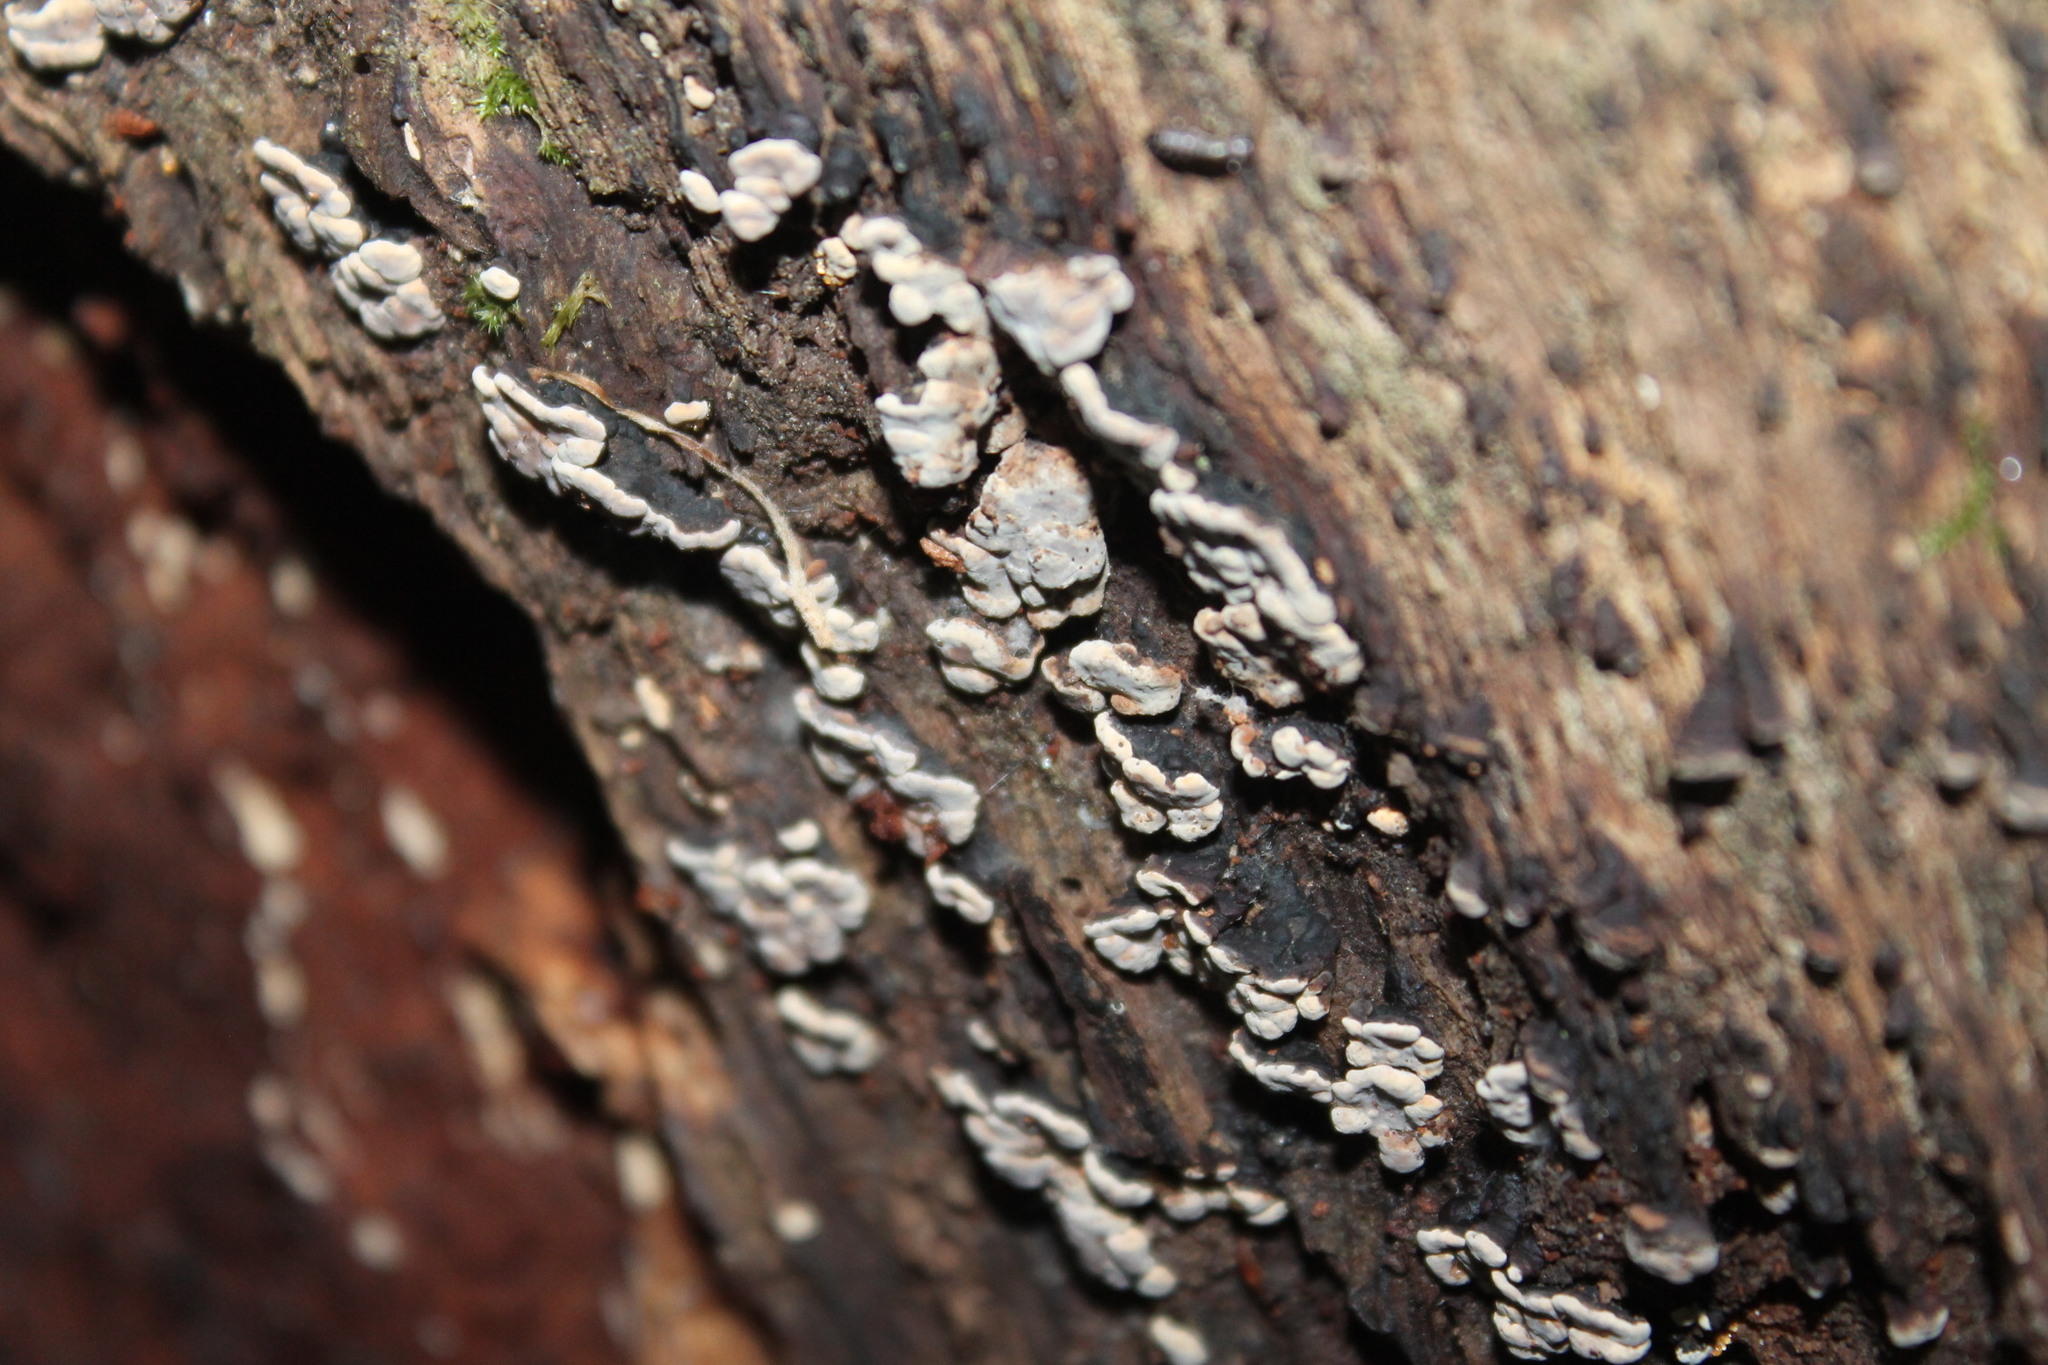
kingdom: Fungi
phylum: Basidiomycota
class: Agaricomycetes
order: Russulales
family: Stereaceae
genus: Xylobolus
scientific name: Xylobolus frustulatus
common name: Ceramic parchment
